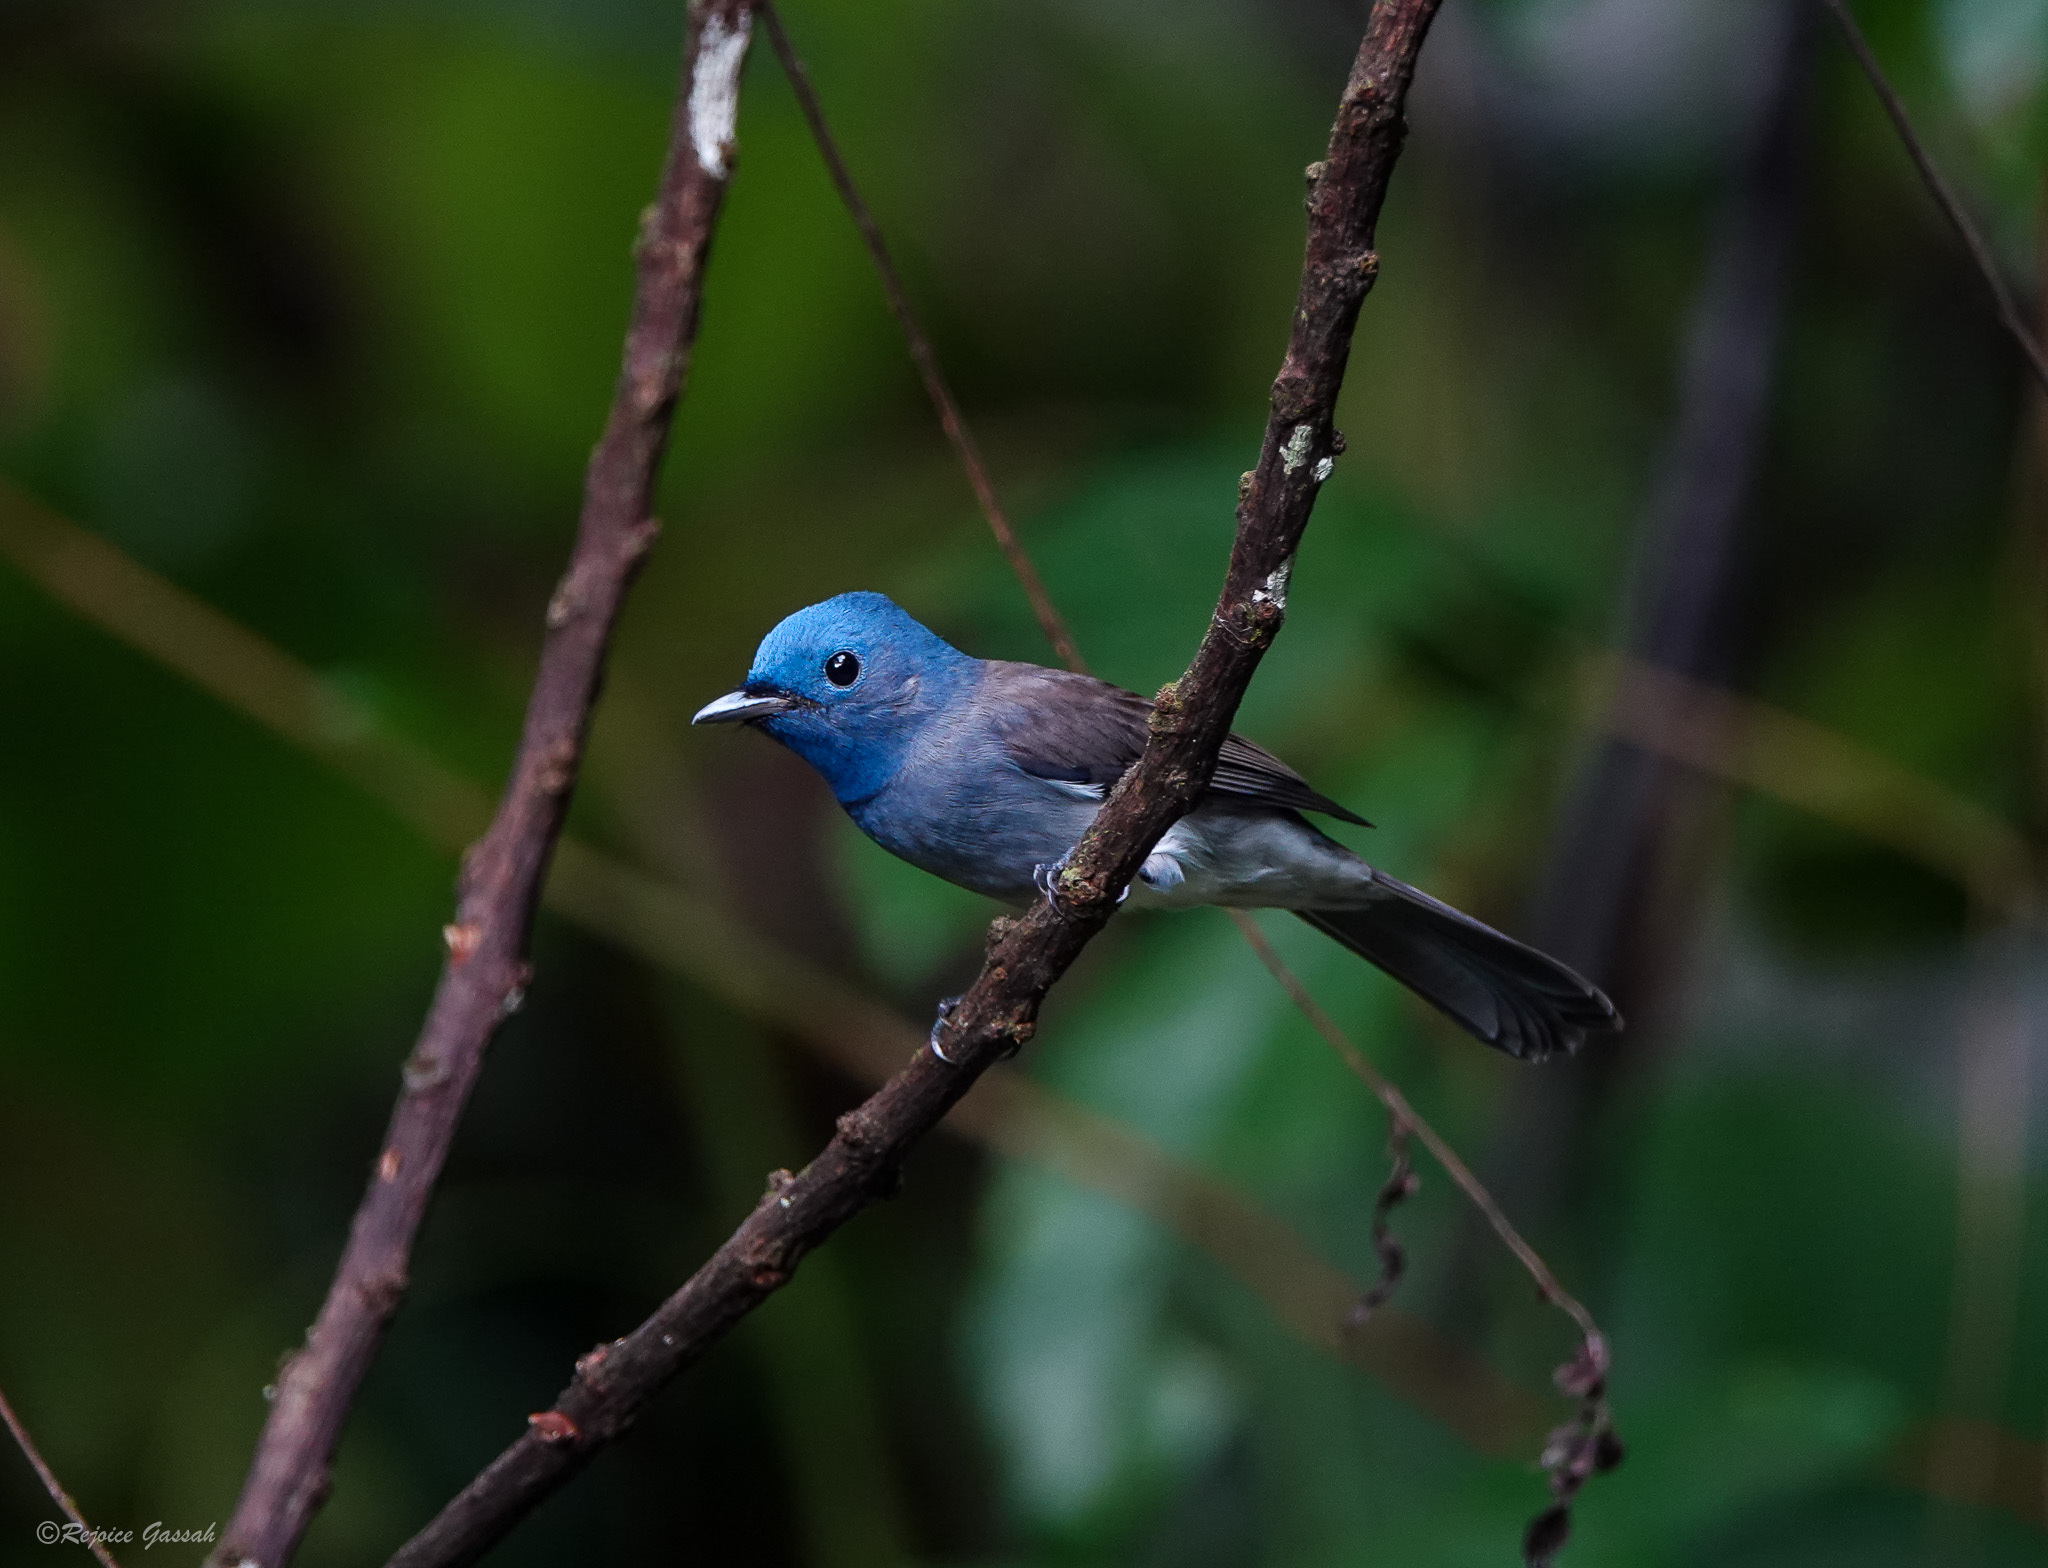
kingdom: Animalia
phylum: Chordata
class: Aves
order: Passeriformes
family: Monarchidae
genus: Hypothymis
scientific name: Hypothymis azurea
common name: Black-naped monarch
